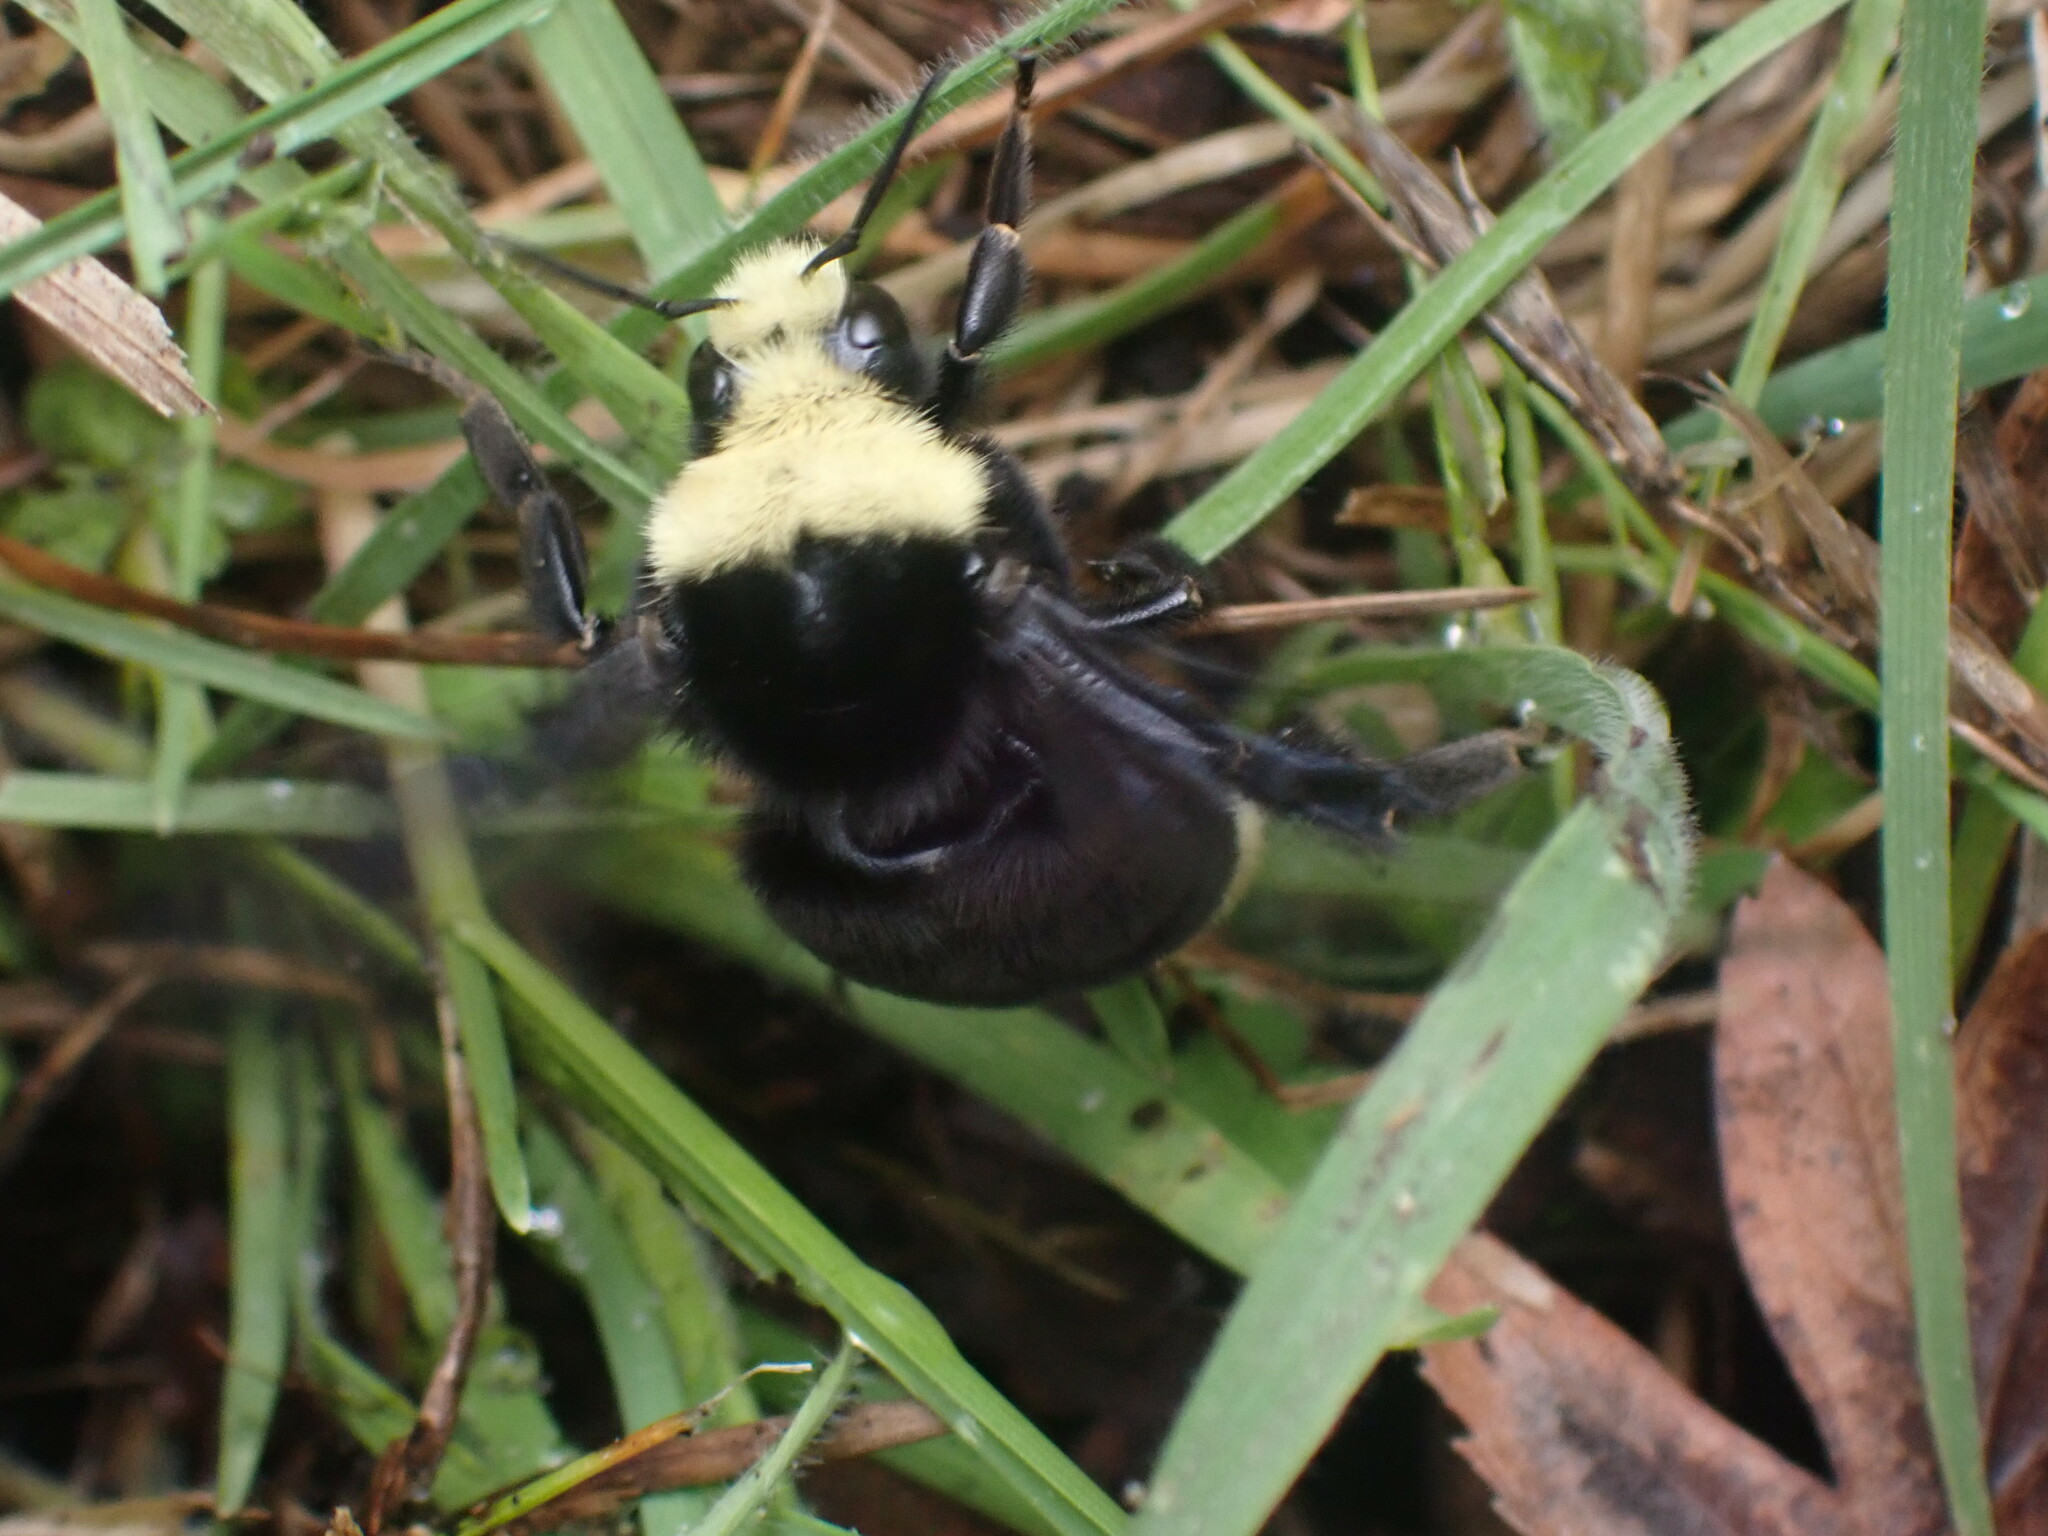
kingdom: Animalia
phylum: Arthropoda
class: Insecta
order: Hymenoptera
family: Apidae
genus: Bombus
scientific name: Bombus vosnesenskii
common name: Vosnesensky bumble bee
